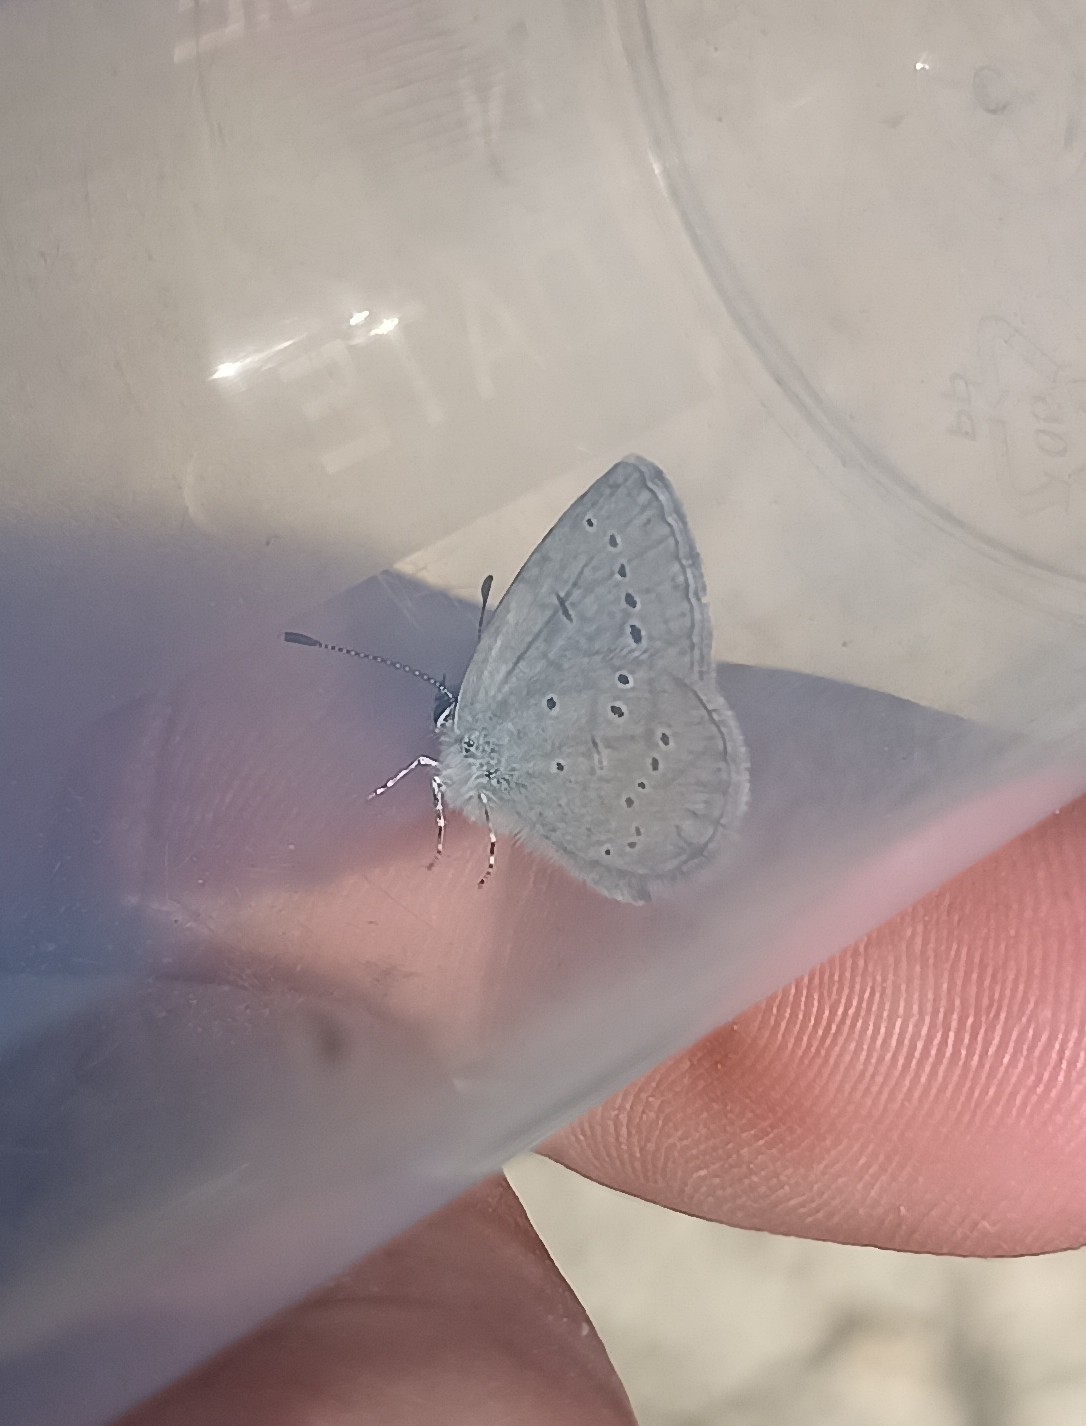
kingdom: Animalia
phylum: Arthropoda
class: Insecta
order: Lepidoptera
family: Lycaenidae
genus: Cupido
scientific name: Cupido minimus
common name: Small blue
